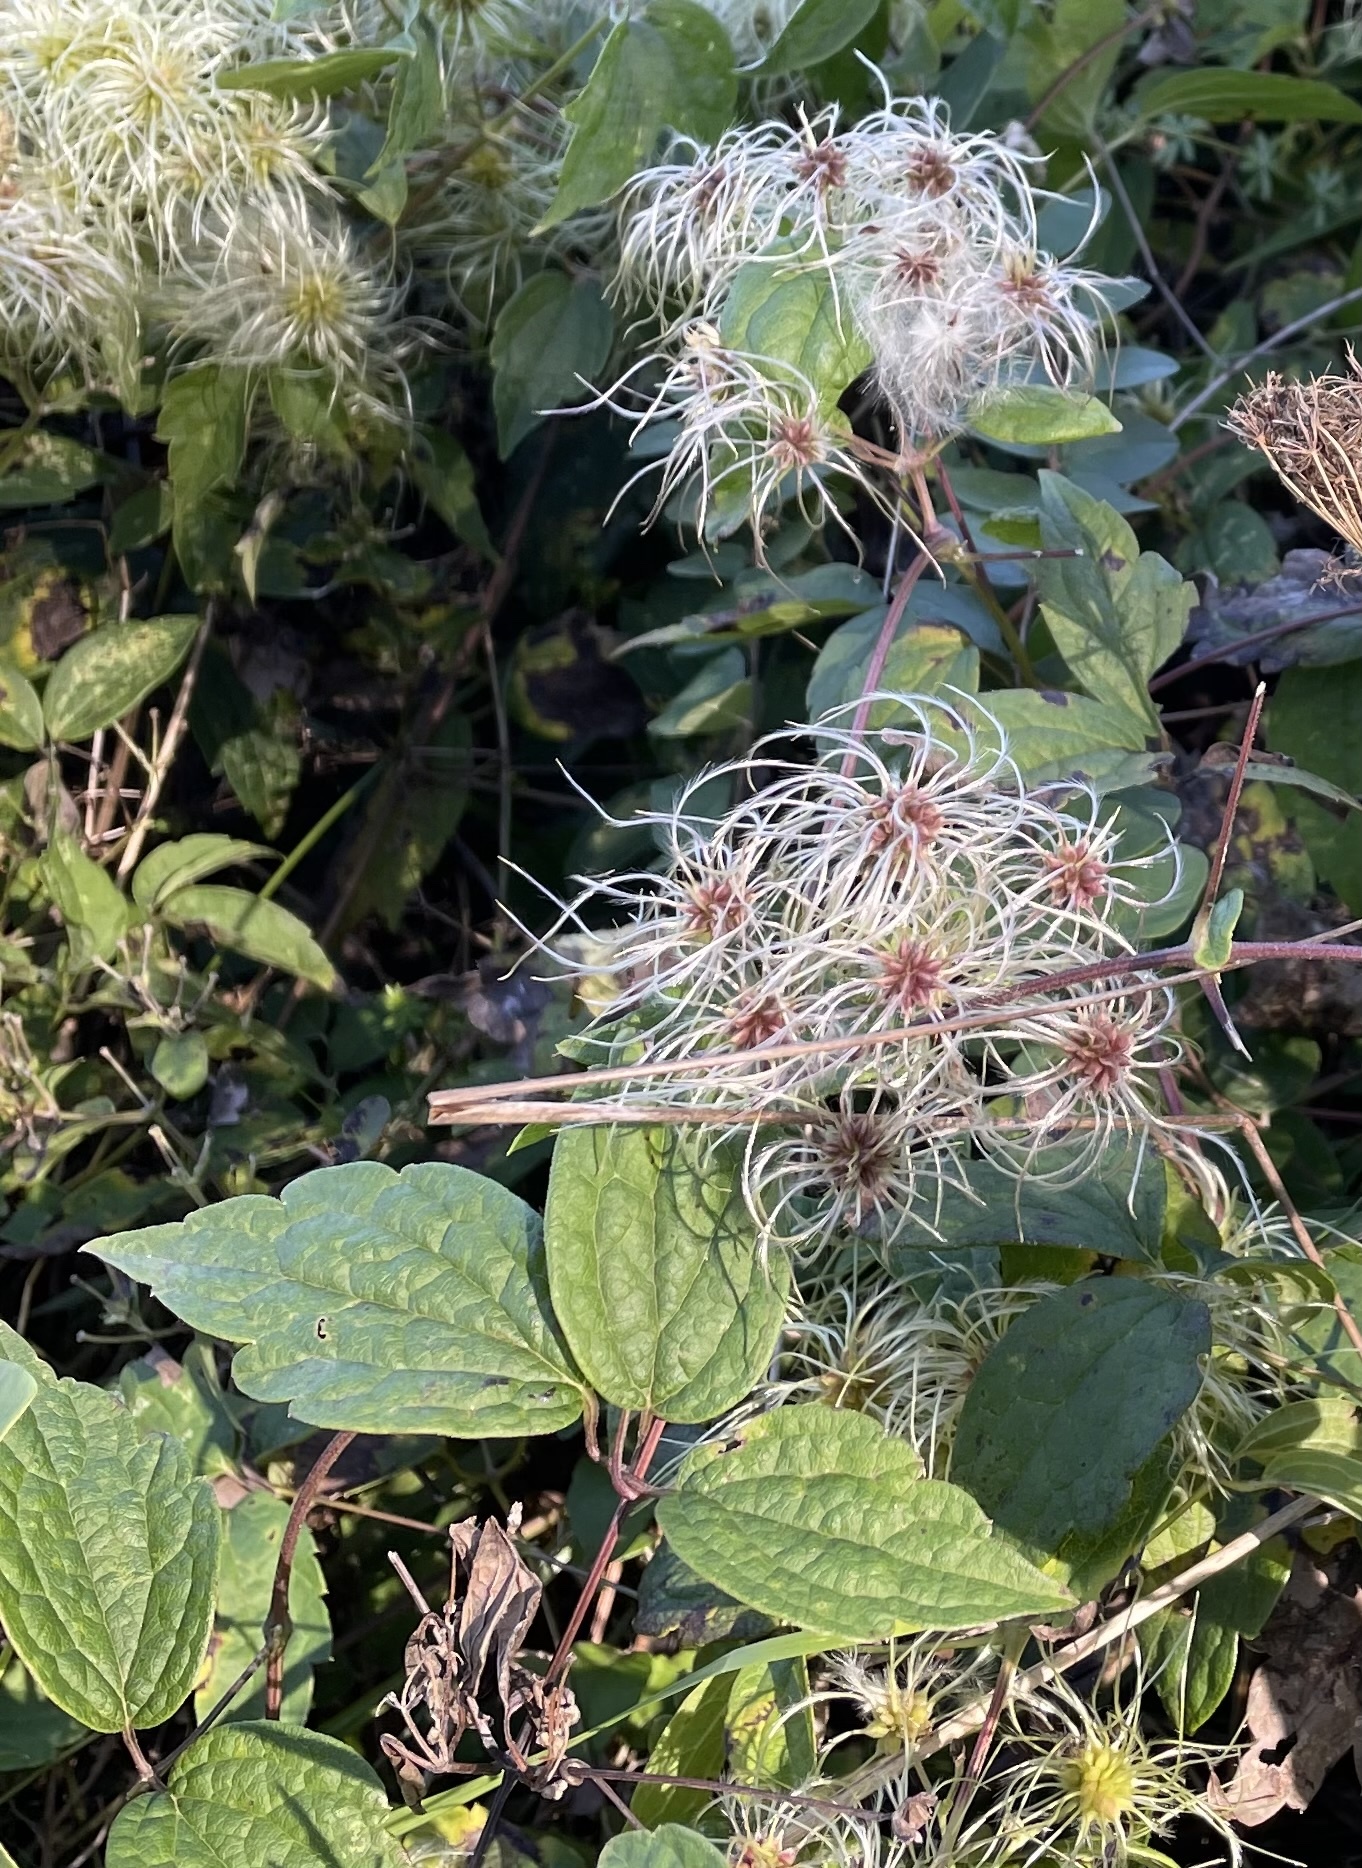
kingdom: Plantae
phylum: Tracheophyta
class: Magnoliopsida
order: Ranunculales
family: Ranunculaceae
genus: Clematis
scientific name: Clematis virginiana
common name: Virgin's-bower
